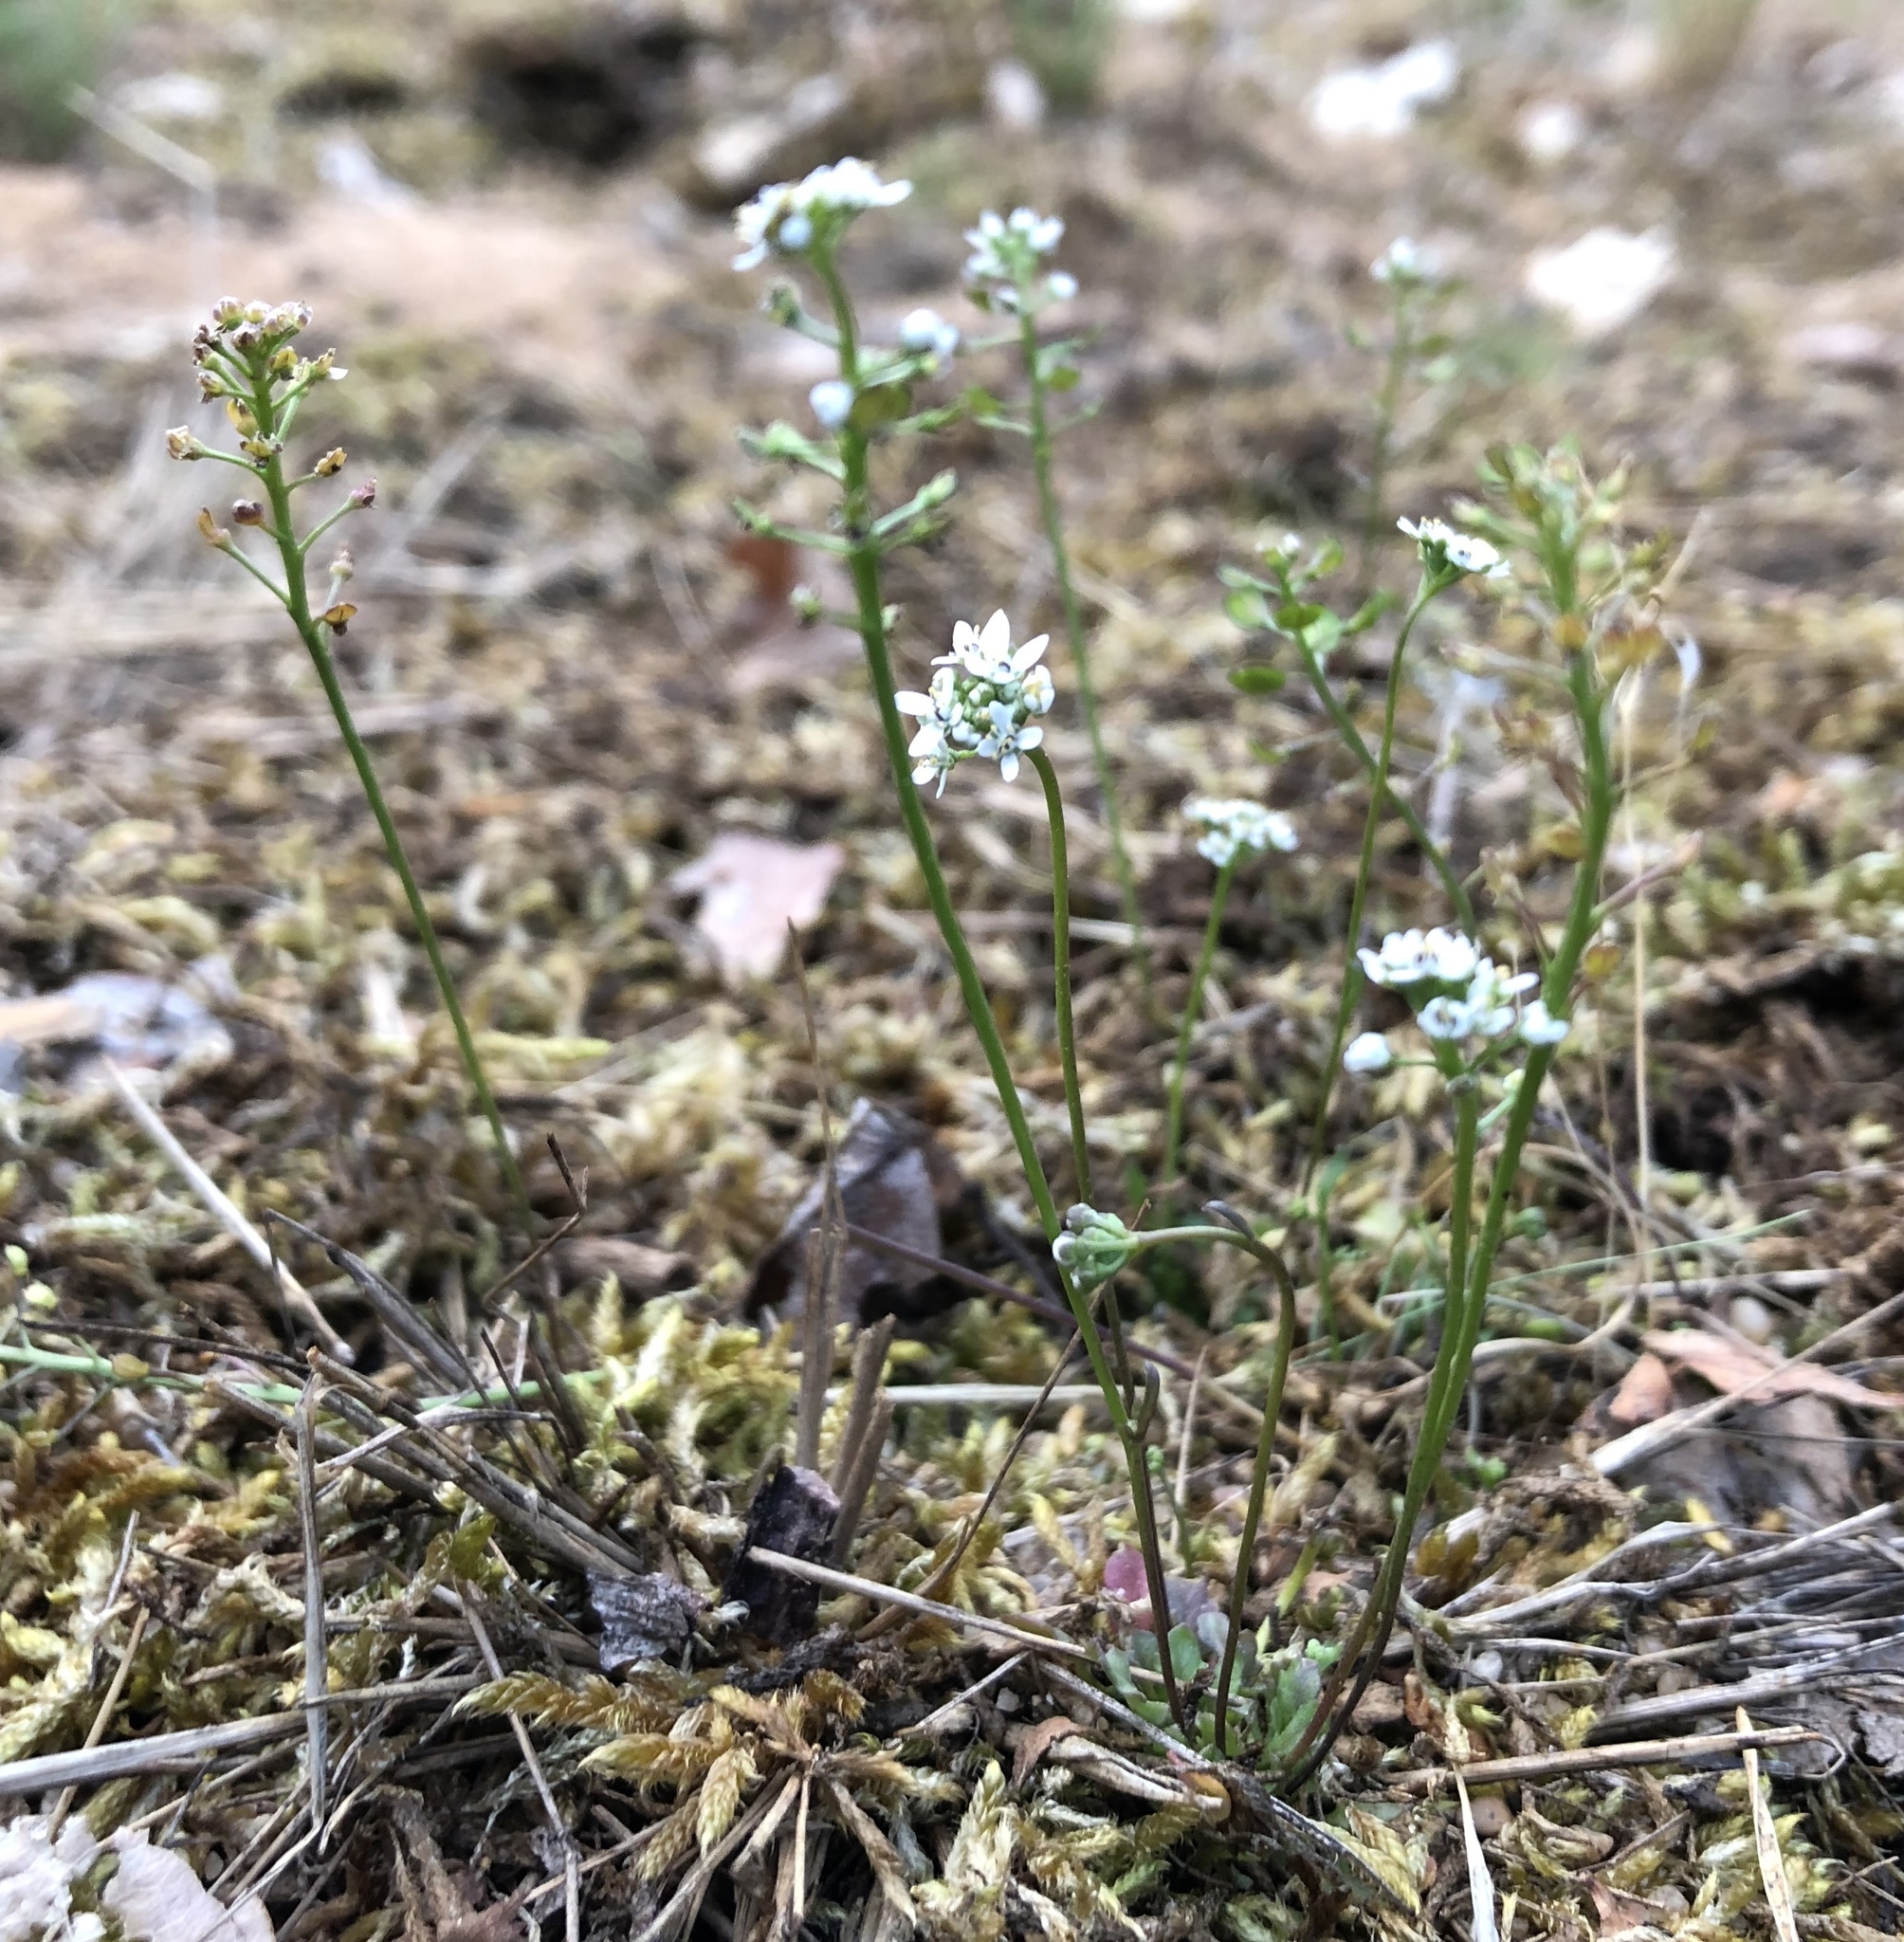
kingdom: Plantae
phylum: Tracheophyta
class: Magnoliopsida
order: Brassicales
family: Brassicaceae
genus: Teesdalia
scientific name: Teesdalia nudicaulis
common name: Shepherd's cress
